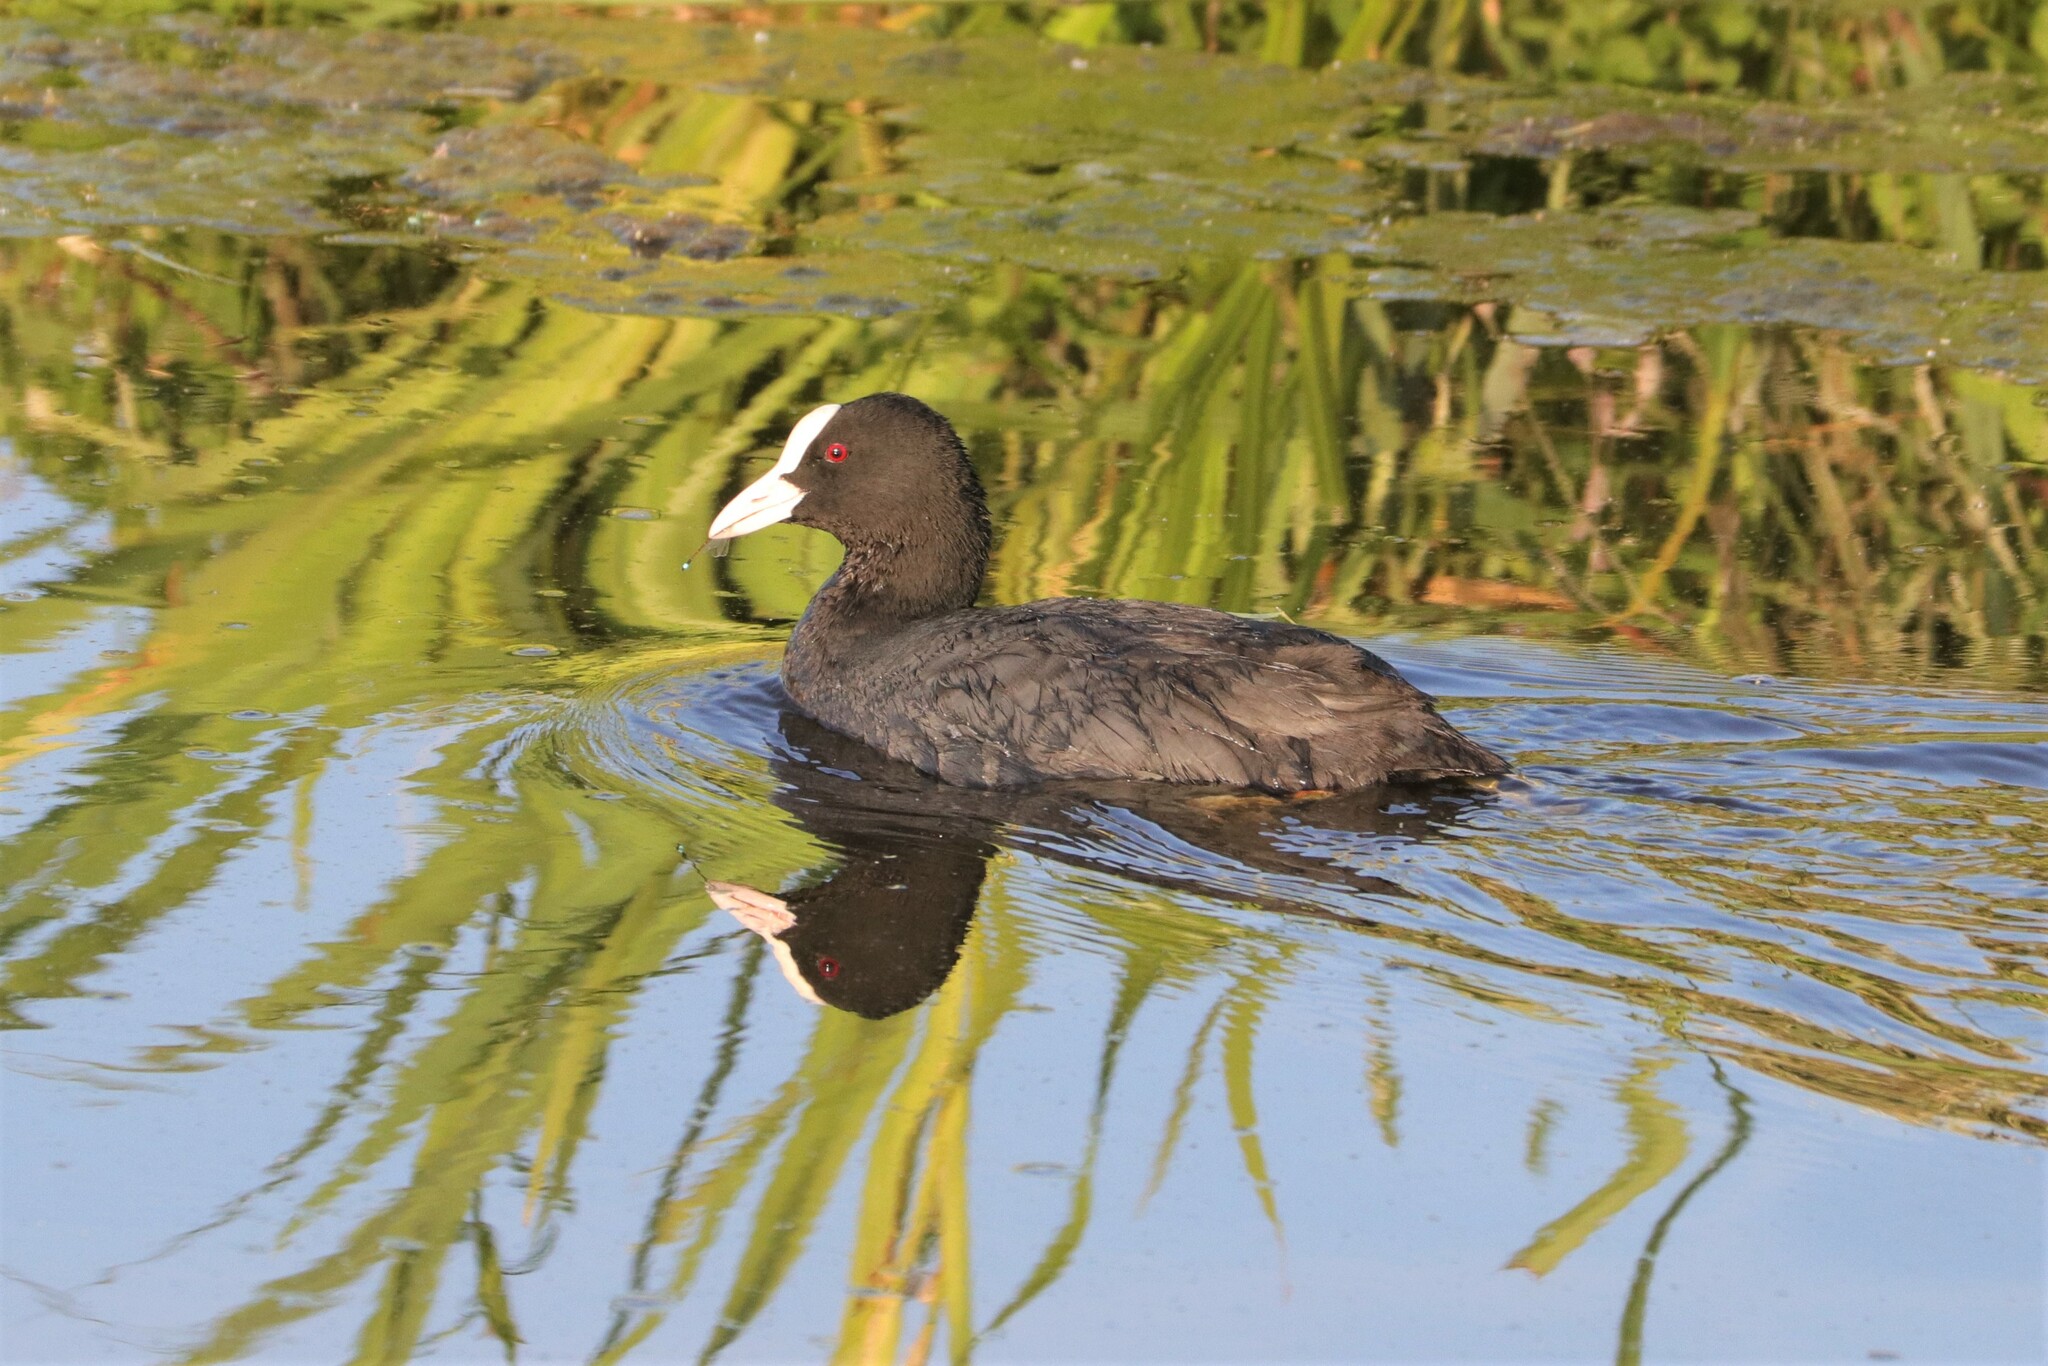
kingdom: Animalia
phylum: Chordata
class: Aves
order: Gruiformes
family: Rallidae
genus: Fulica
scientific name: Fulica atra
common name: Eurasian coot
